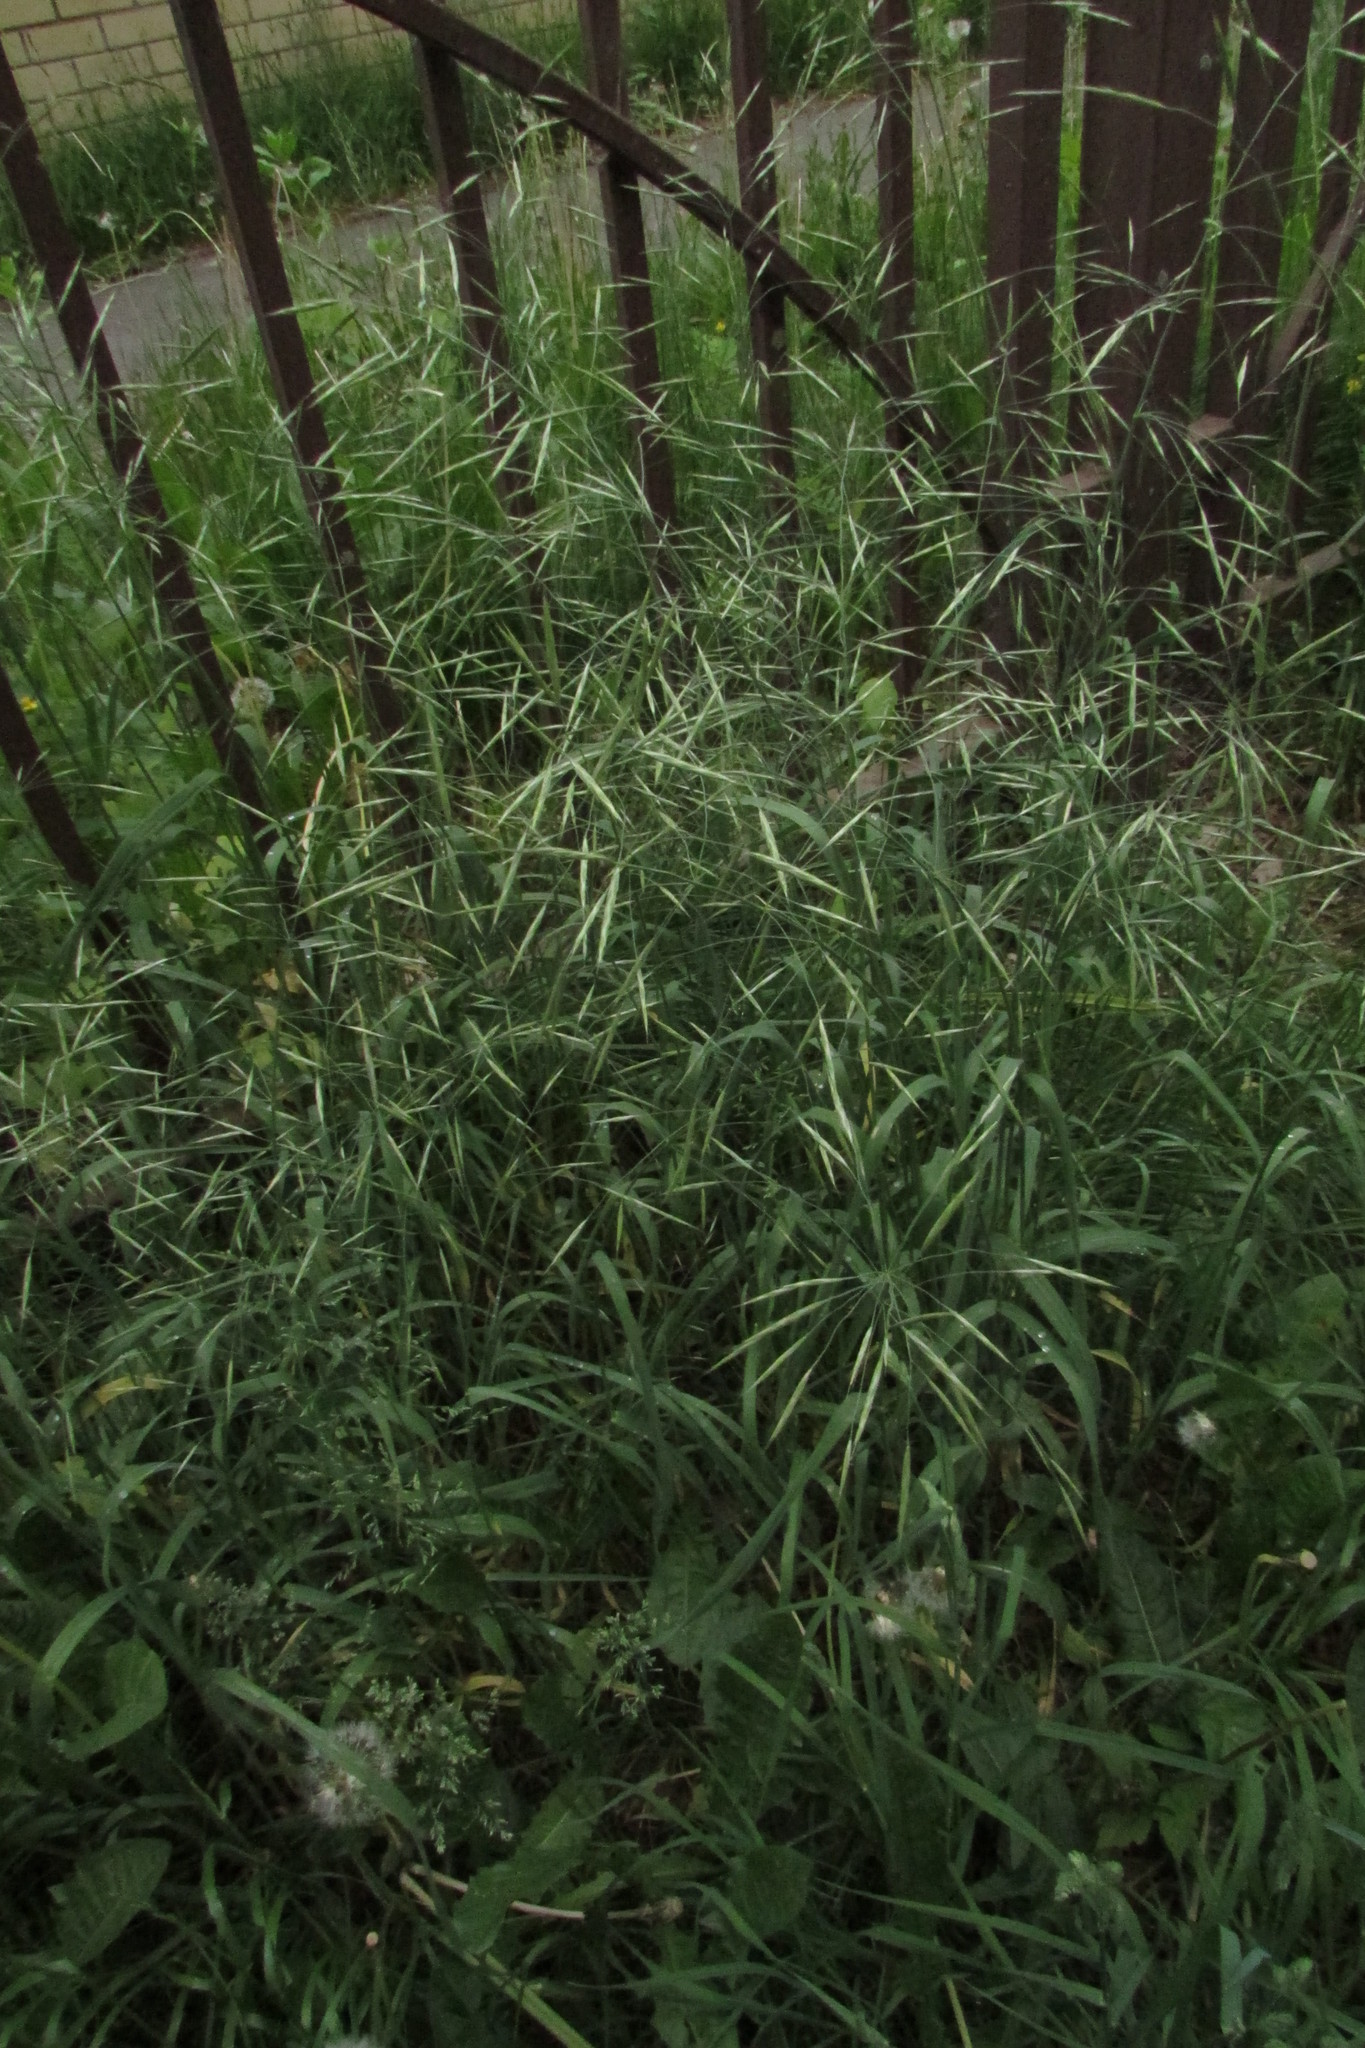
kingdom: Plantae
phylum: Tracheophyta
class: Liliopsida
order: Poales
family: Poaceae
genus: Bromus
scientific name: Bromus riparius
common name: Meadow brome
